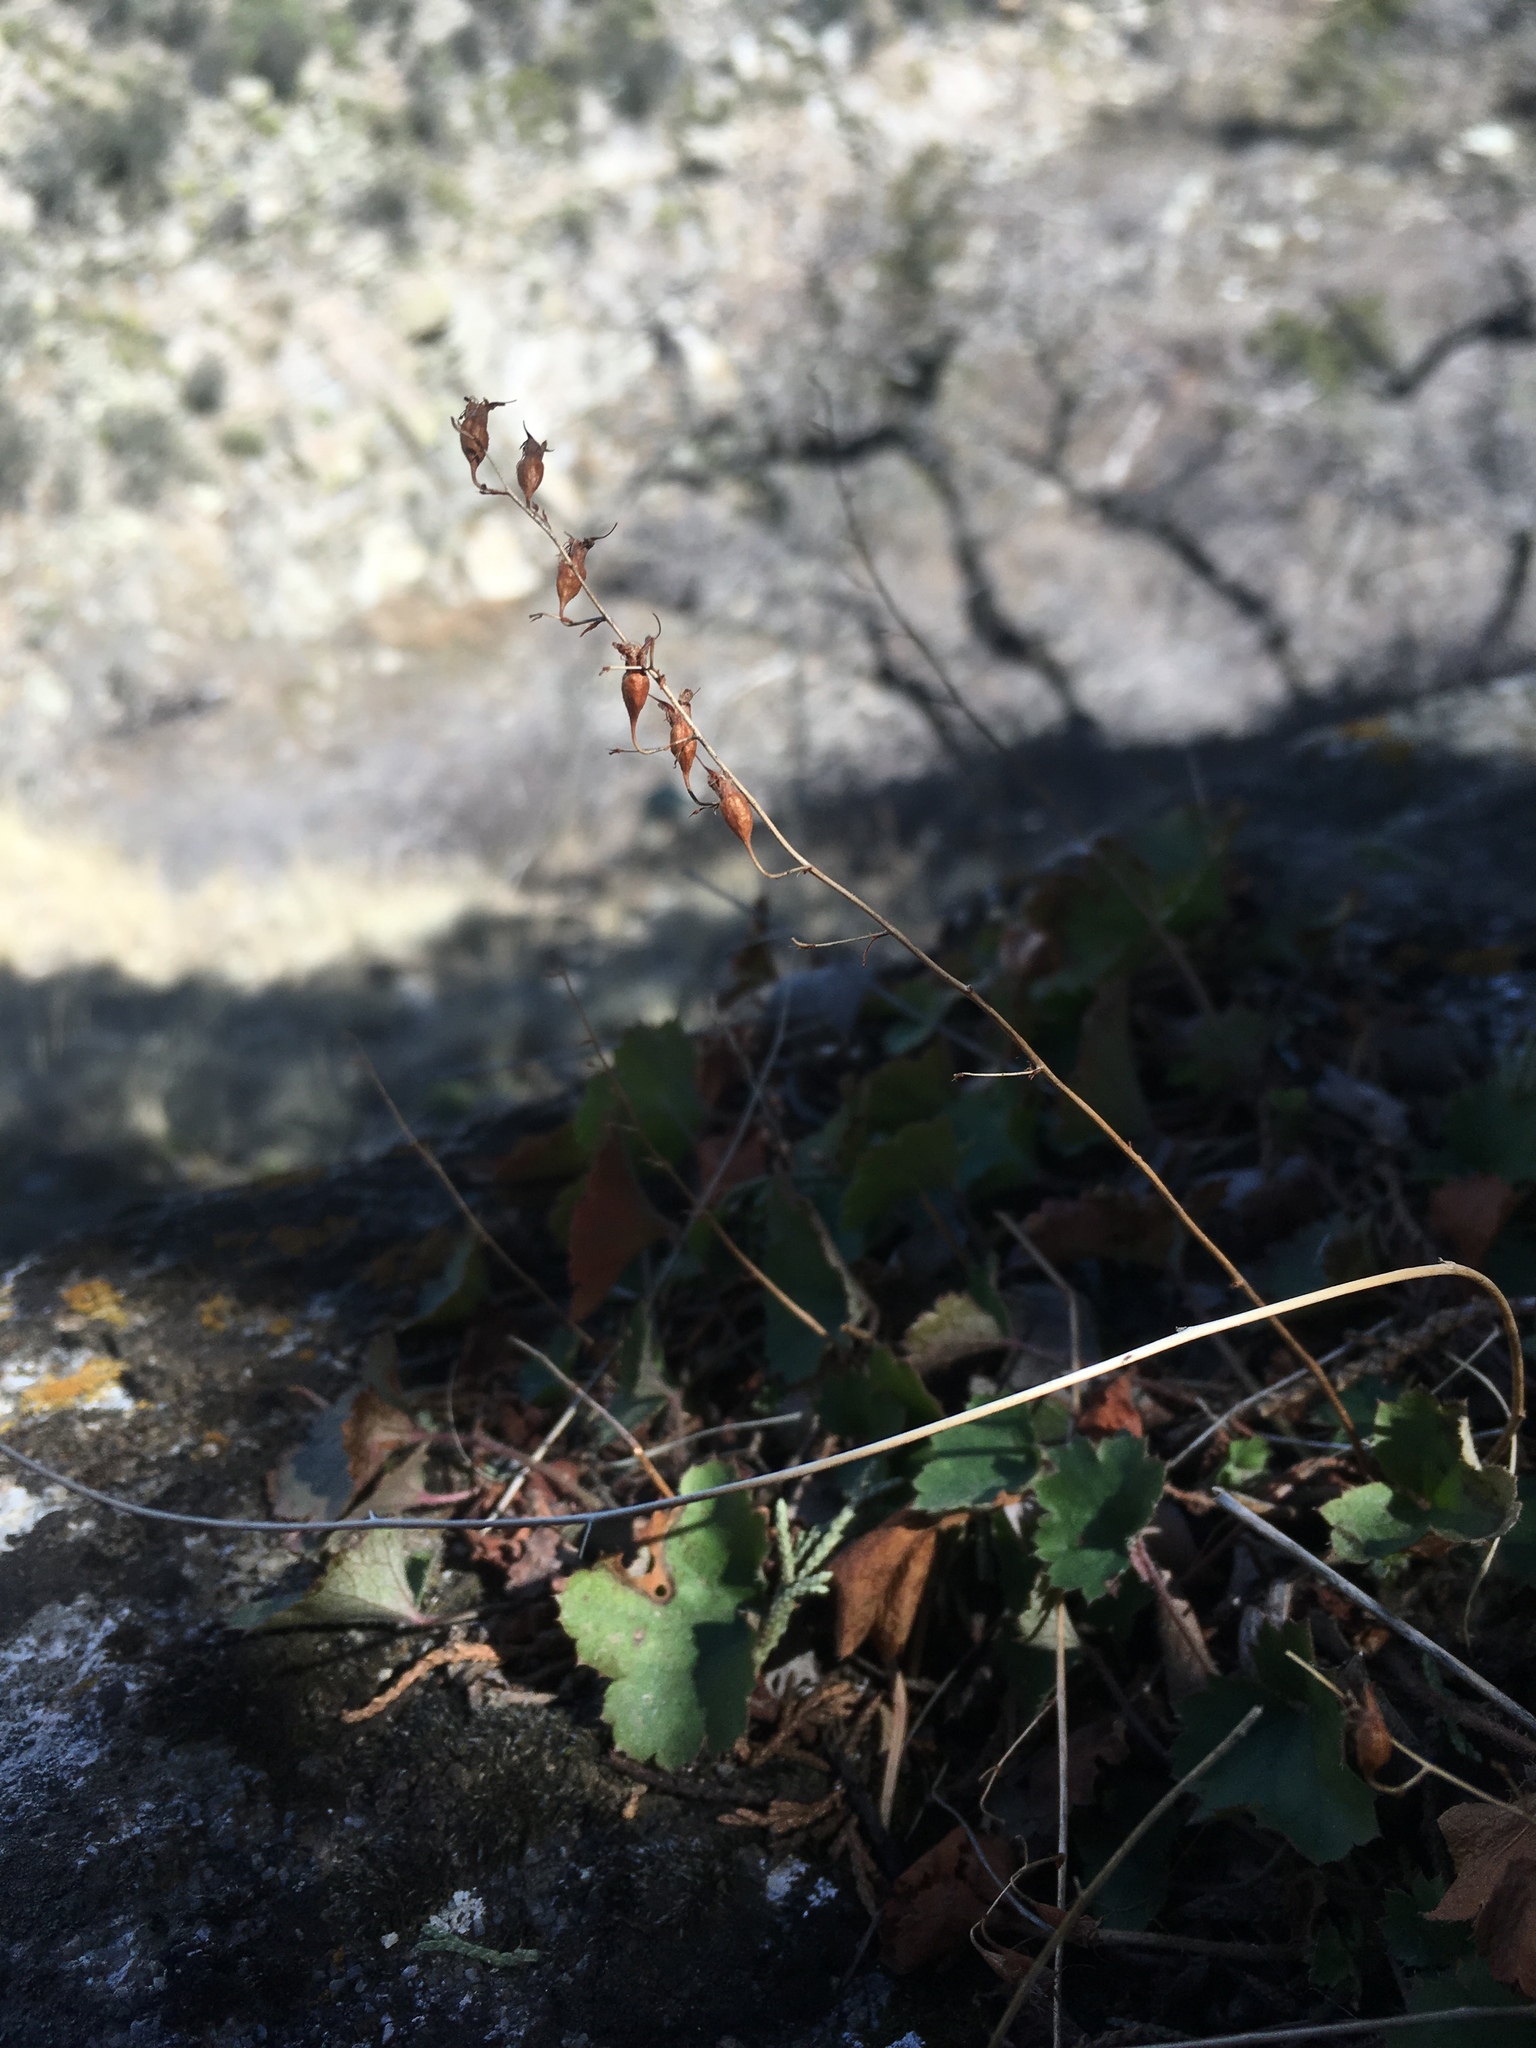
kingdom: Plantae
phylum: Tracheophyta
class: Magnoliopsida
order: Saxifragales
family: Saxifragaceae
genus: Heuchera
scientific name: Heuchera rubescens
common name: Jack-o'the-rocks
